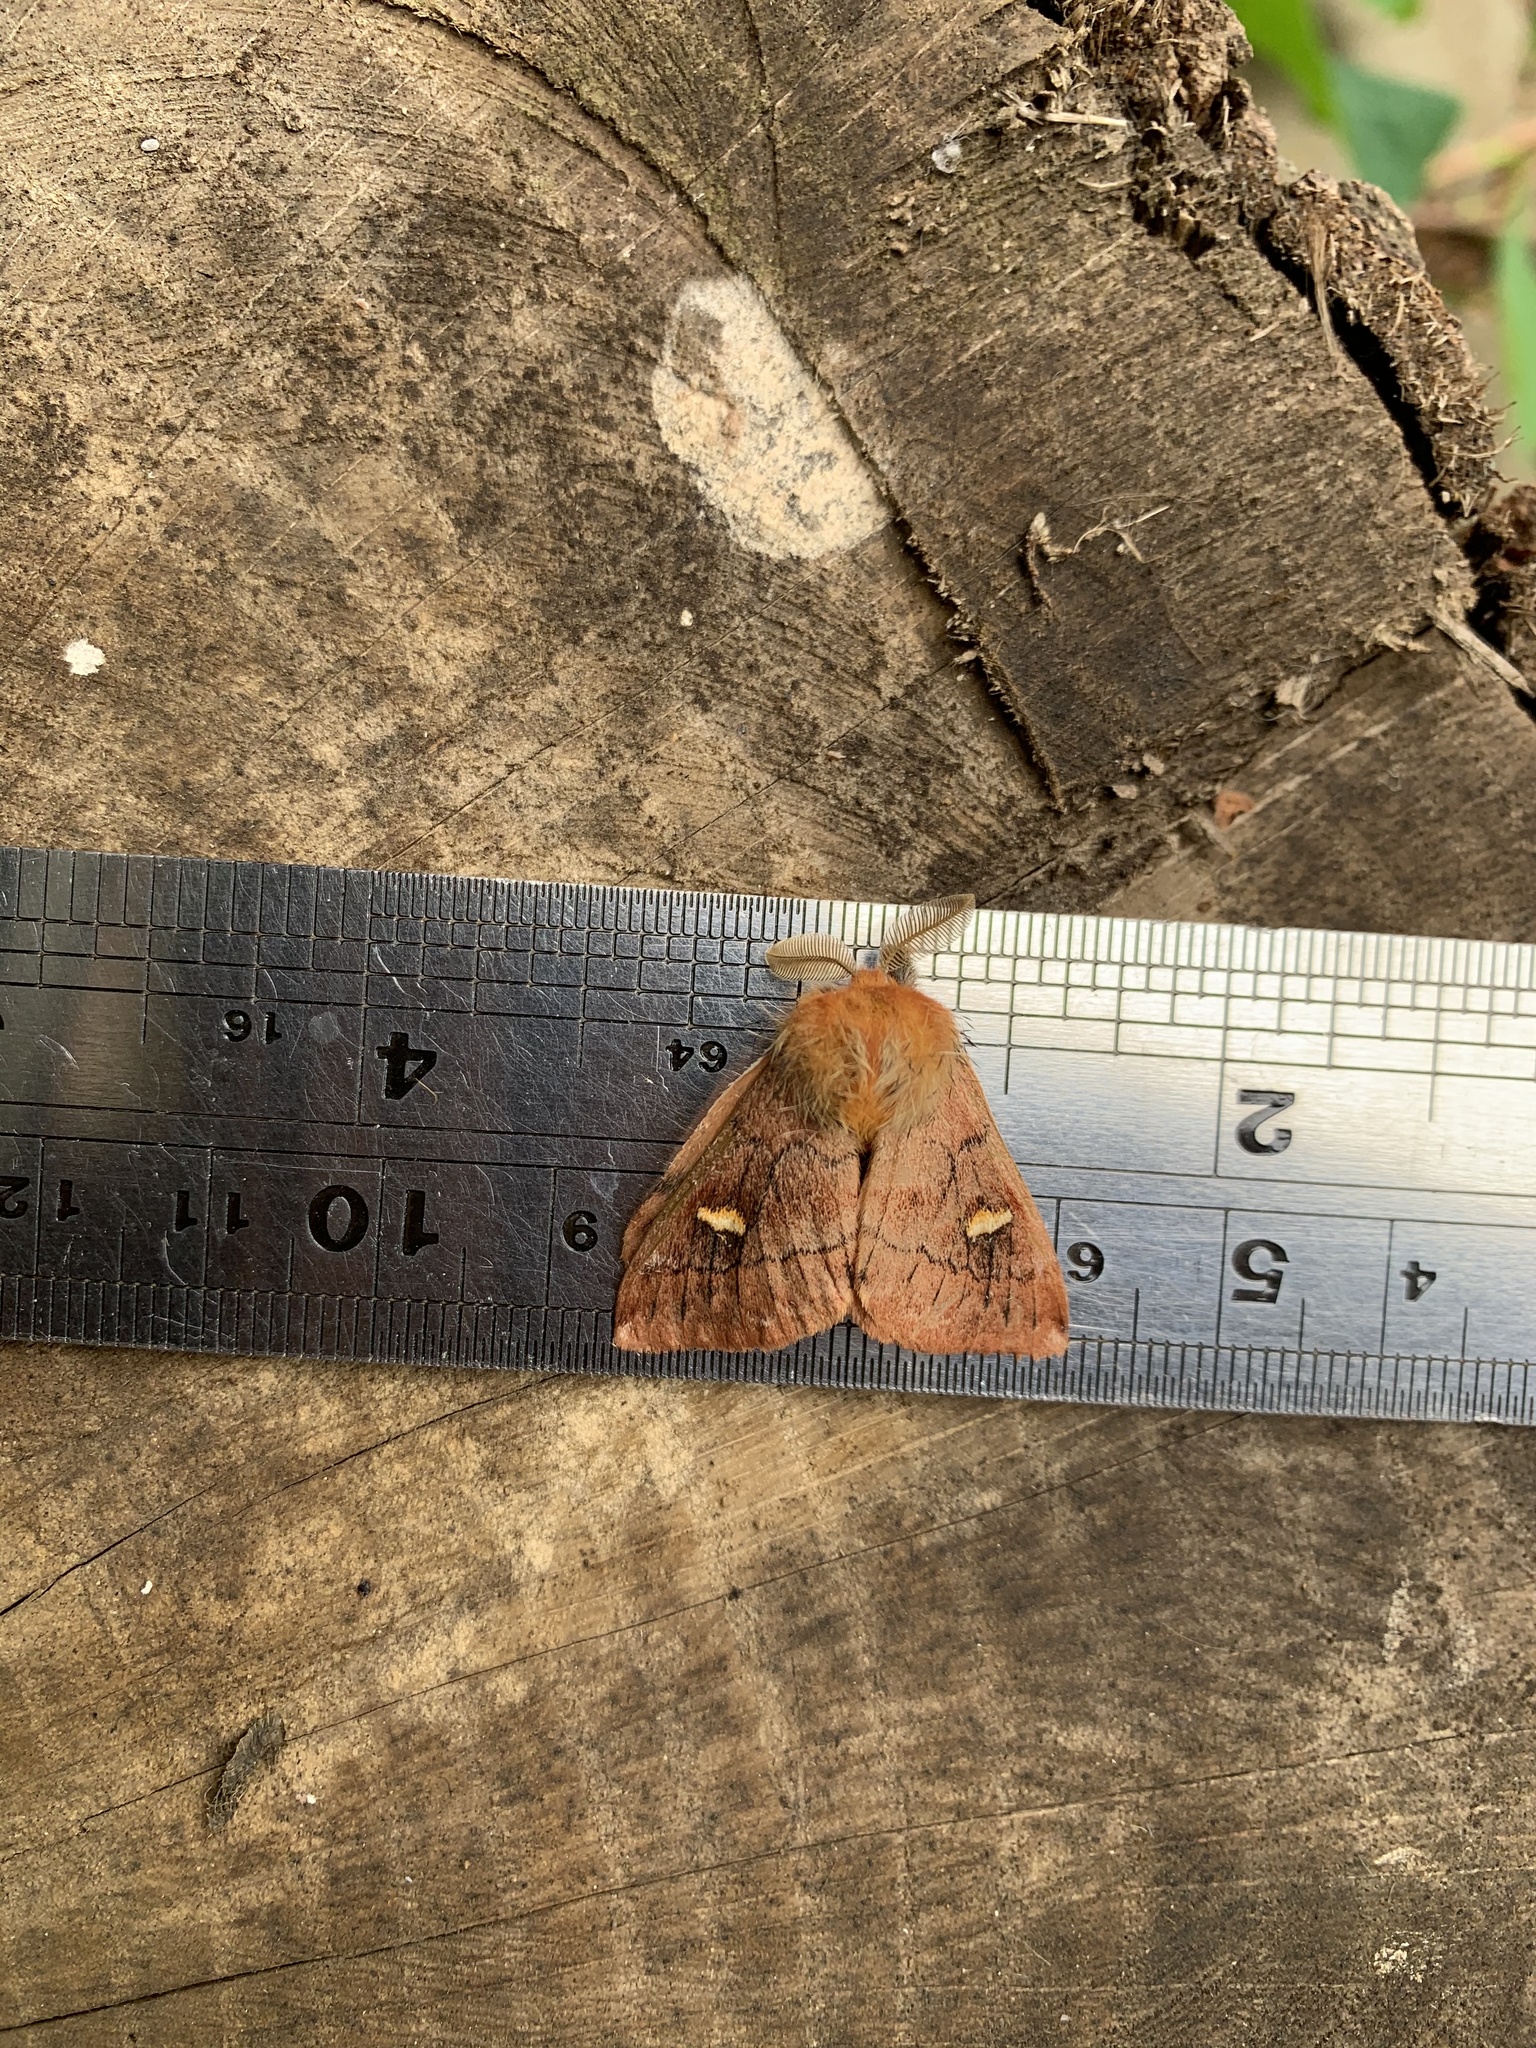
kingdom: Animalia
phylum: Arthropoda
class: Insecta
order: Lepidoptera
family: Saturniidae
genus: Ormiscodes
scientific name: Ormiscodes amphinome
